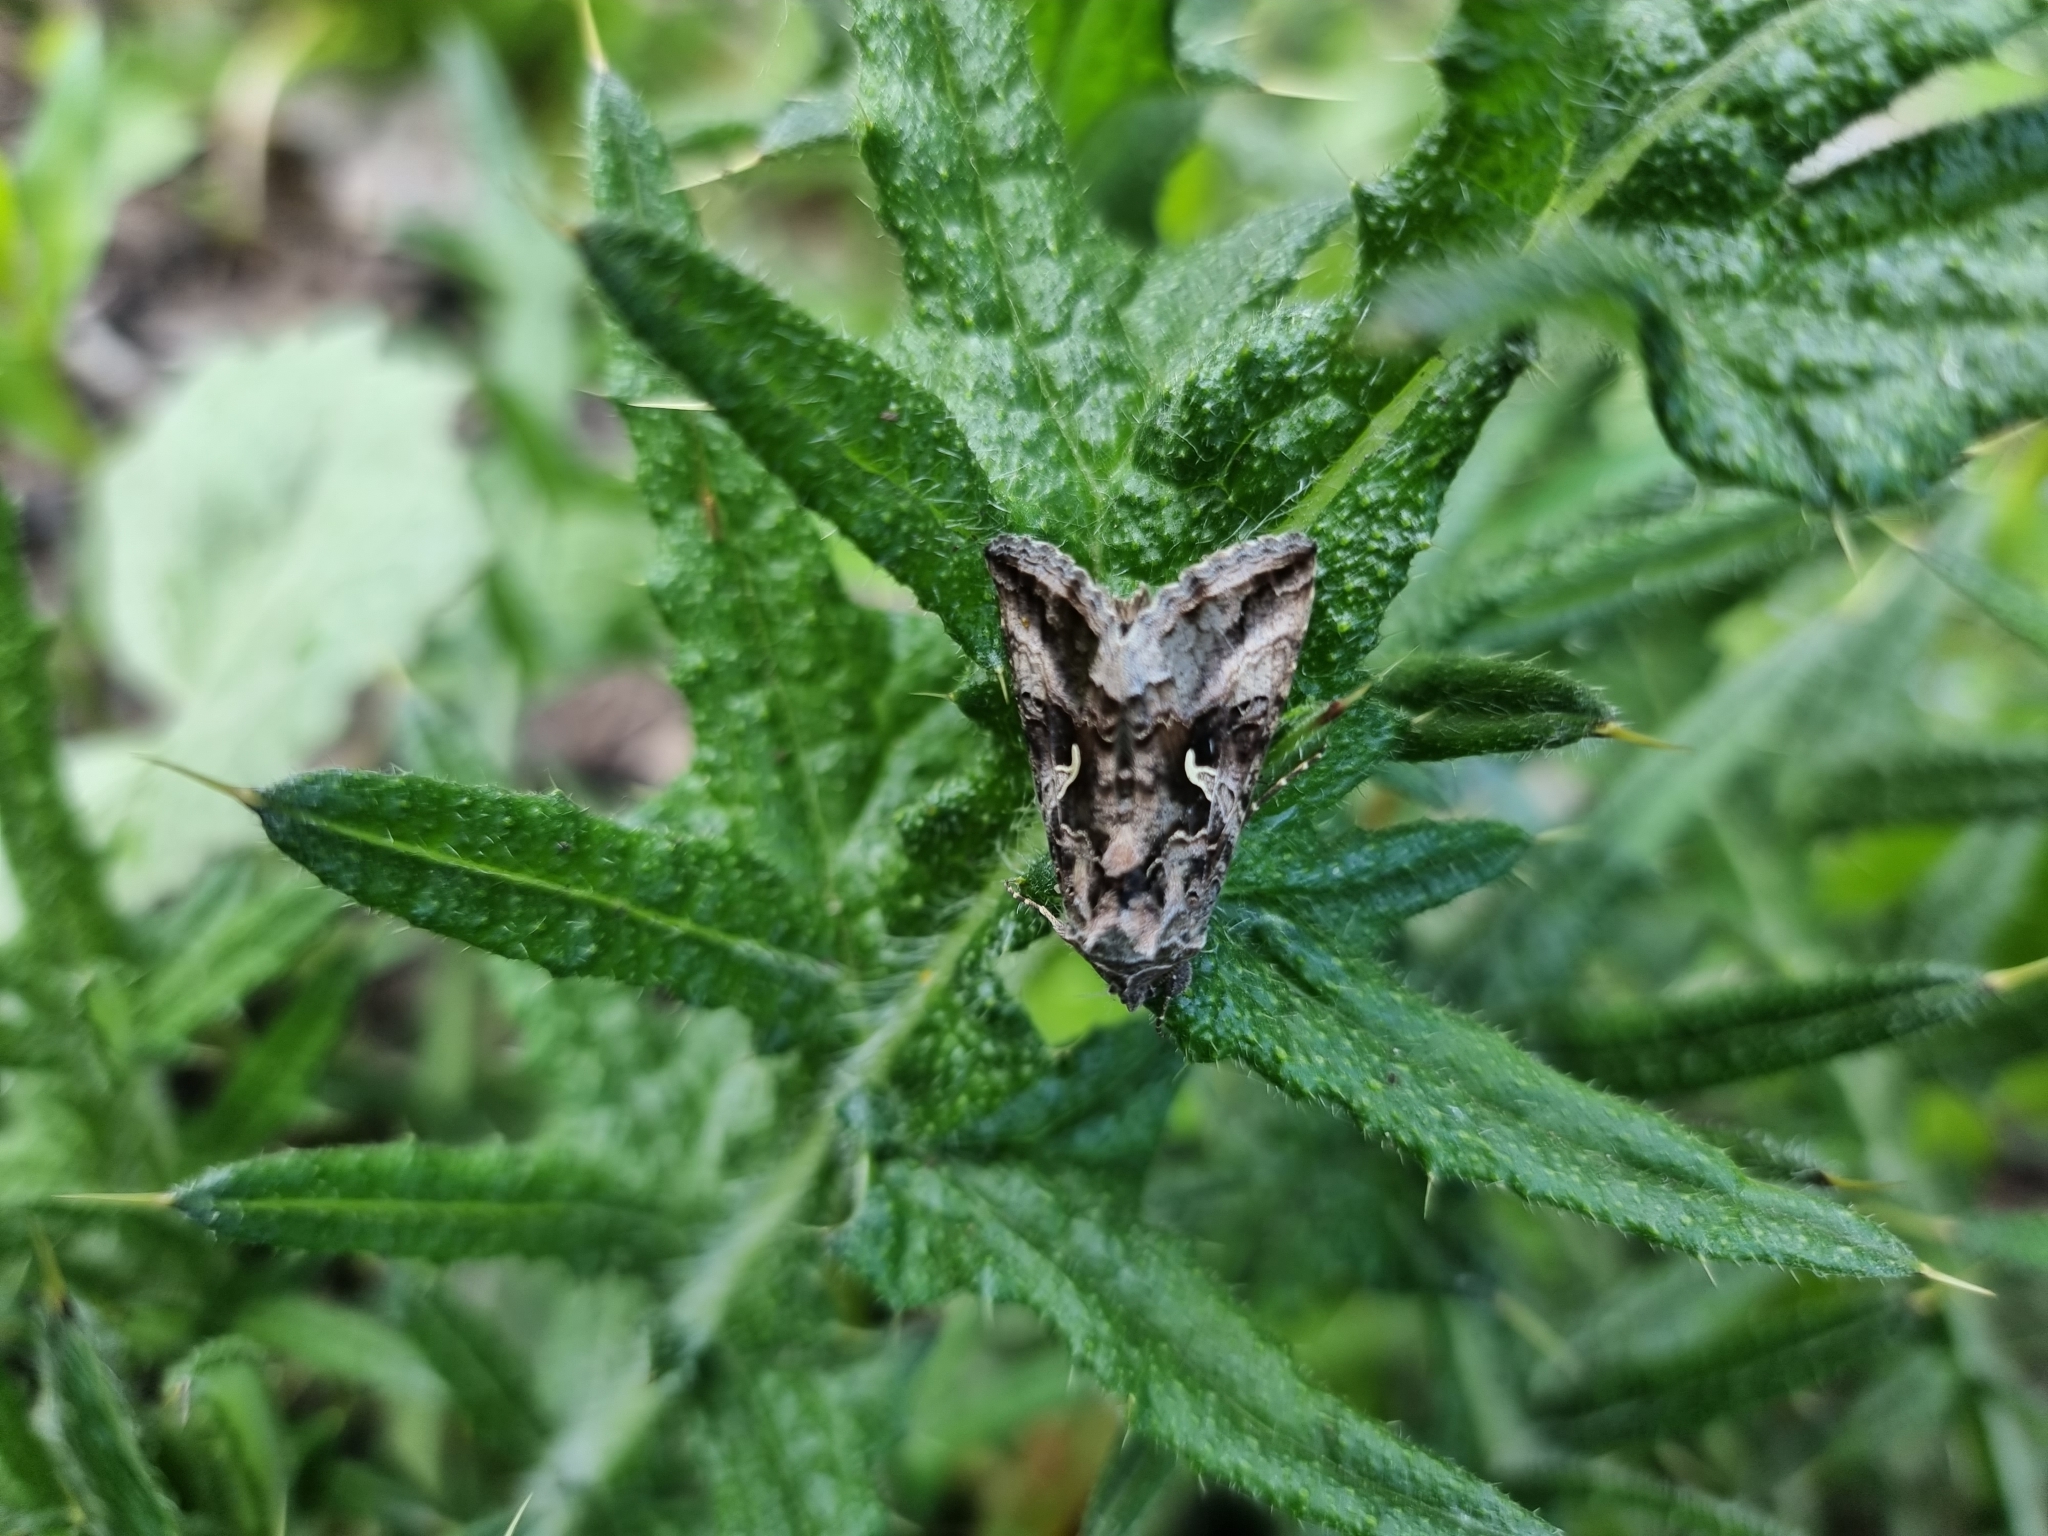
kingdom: Animalia
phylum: Arthropoda
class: Insecta
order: Lepidoptera
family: Noctuidae
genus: Autographa
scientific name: Autographa gamma
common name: Silver y
